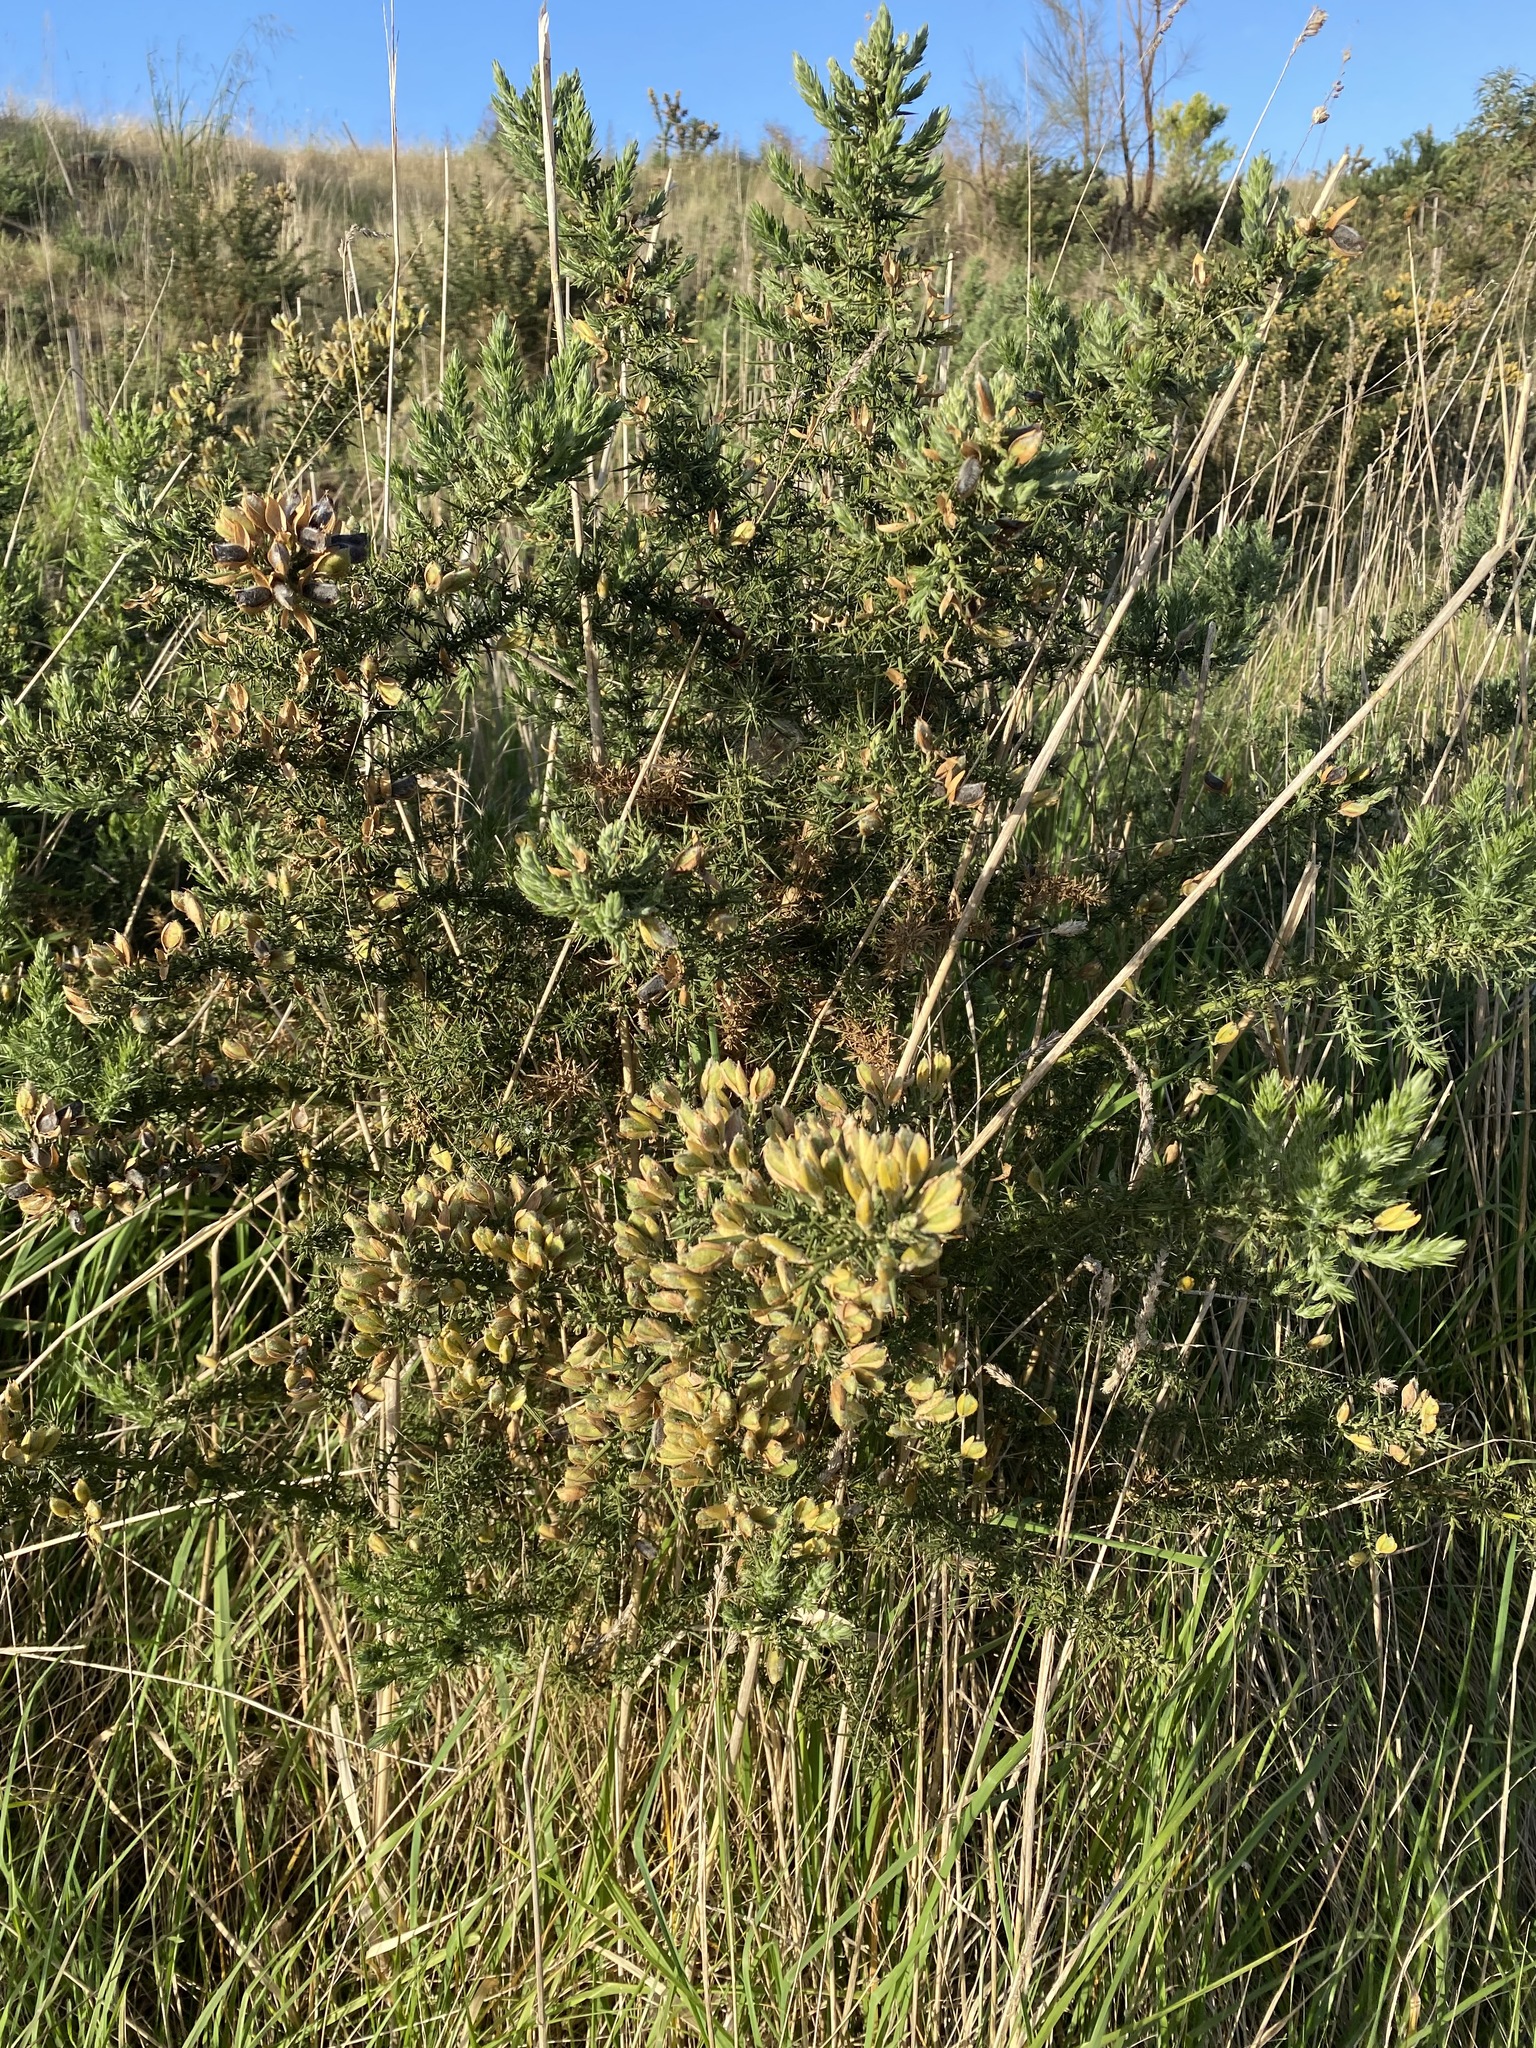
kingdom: Plantae
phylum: Tracheophyta
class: Magnoliopsida
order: Fabales
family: Fabaceae
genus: Ulex
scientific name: Ulex europaeus
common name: Common gorse
